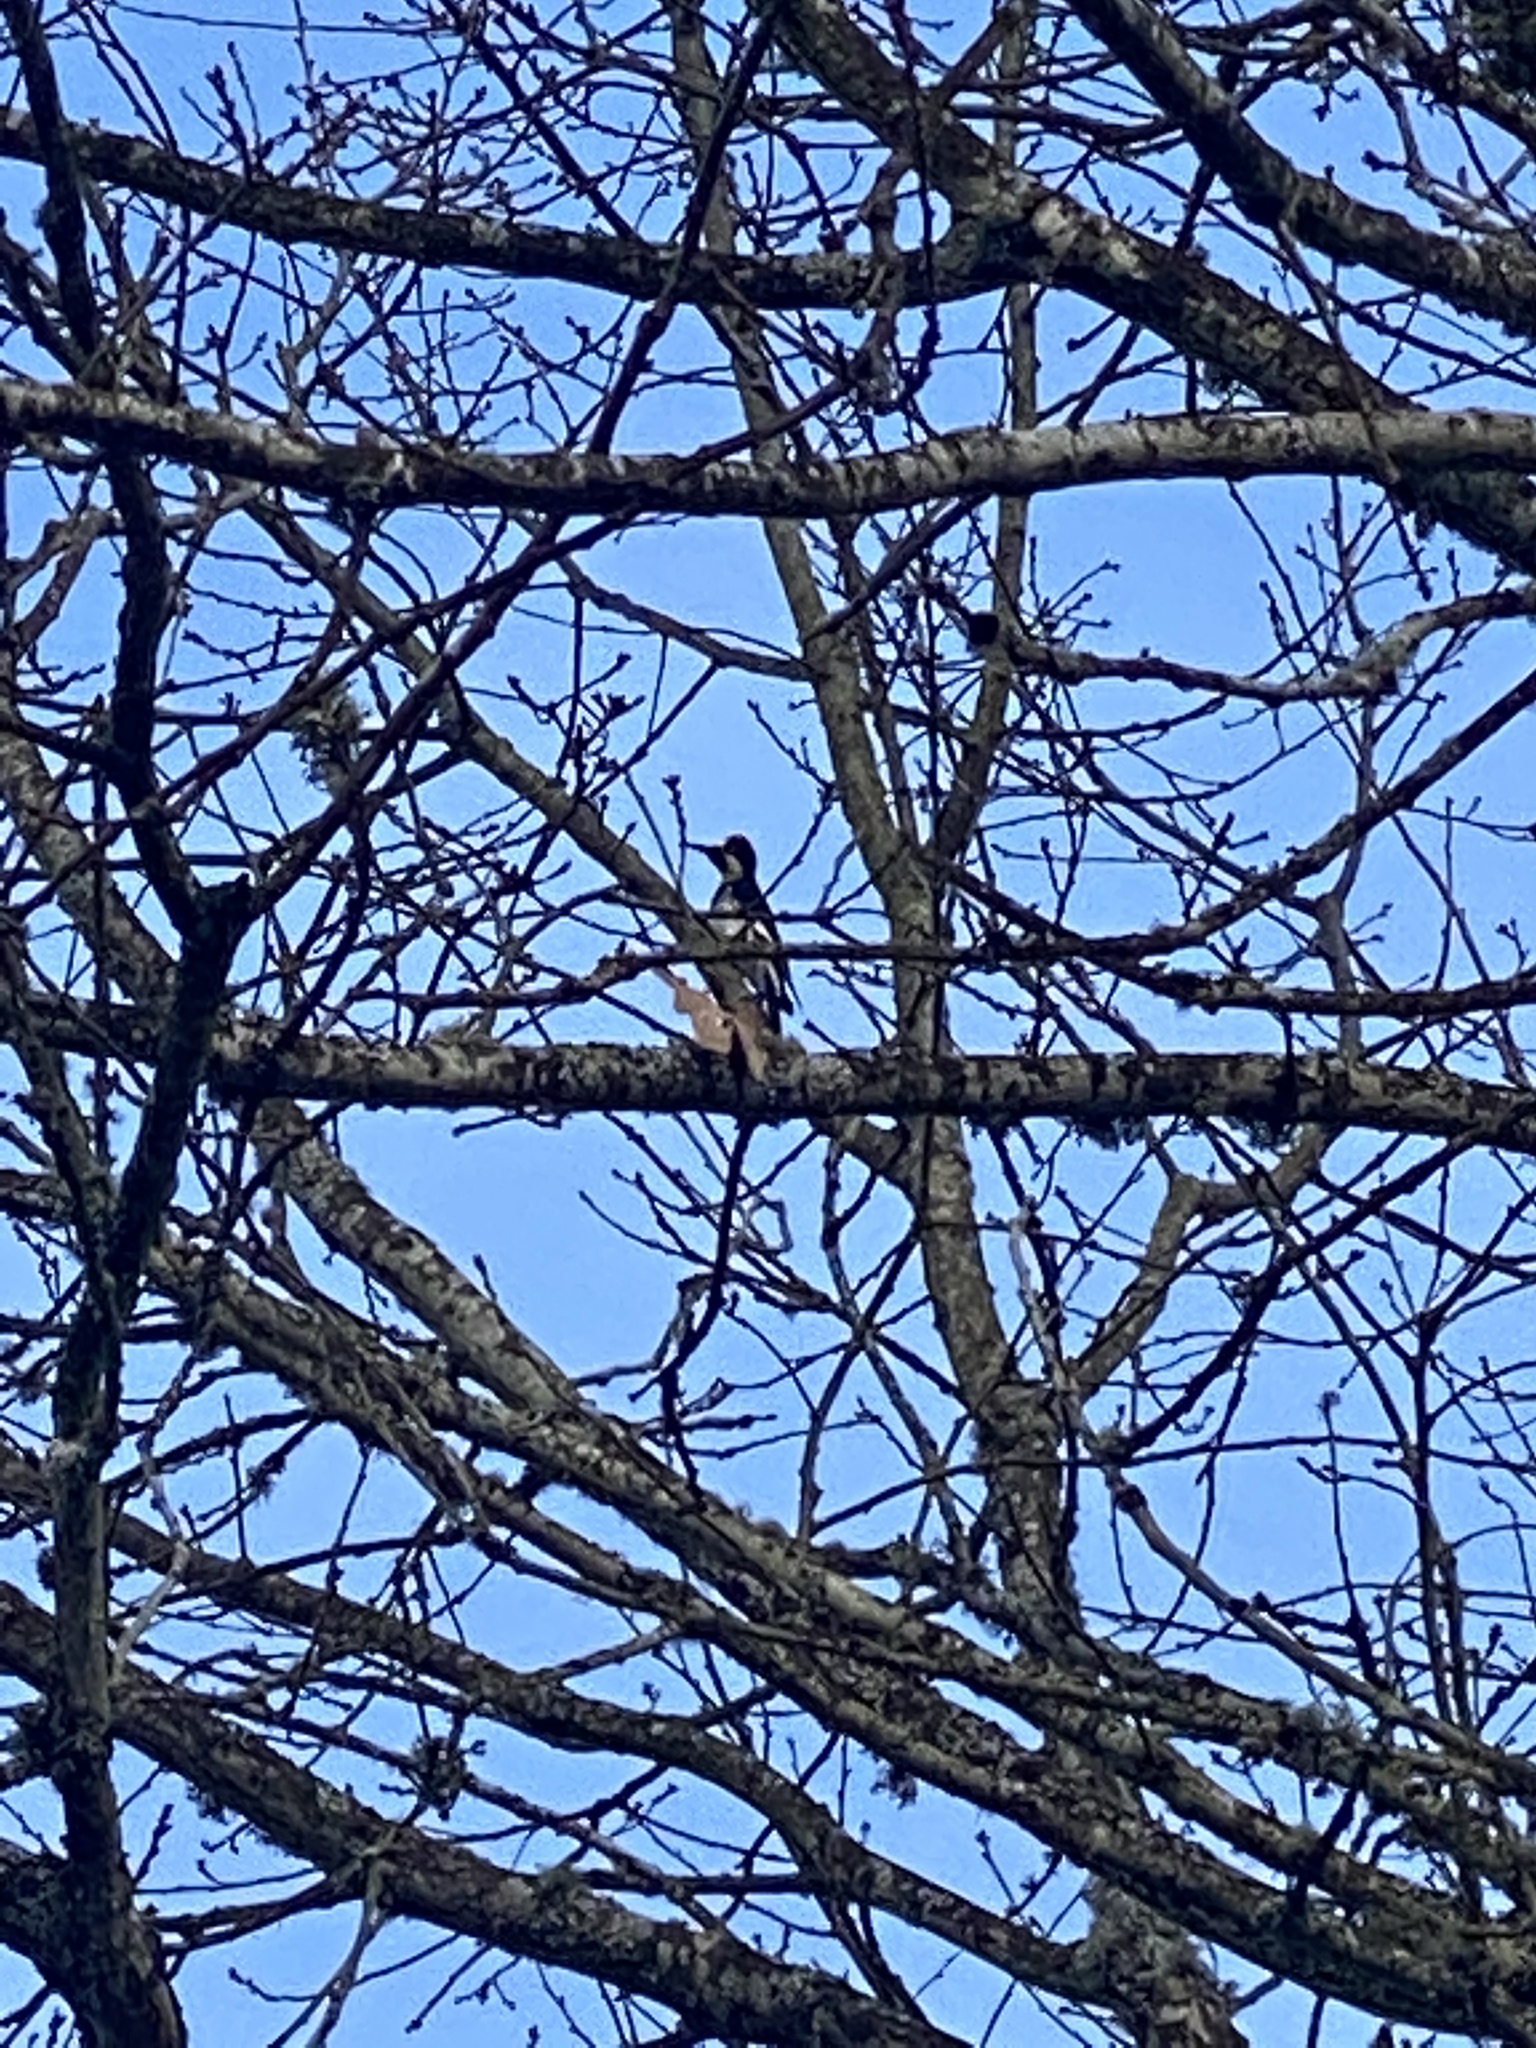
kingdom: Animalia
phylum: Chordata
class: Aves
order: Piciformes
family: Picidae
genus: Melanerpes
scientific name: Melanerpes formicivorus
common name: Acorn woodpecker
